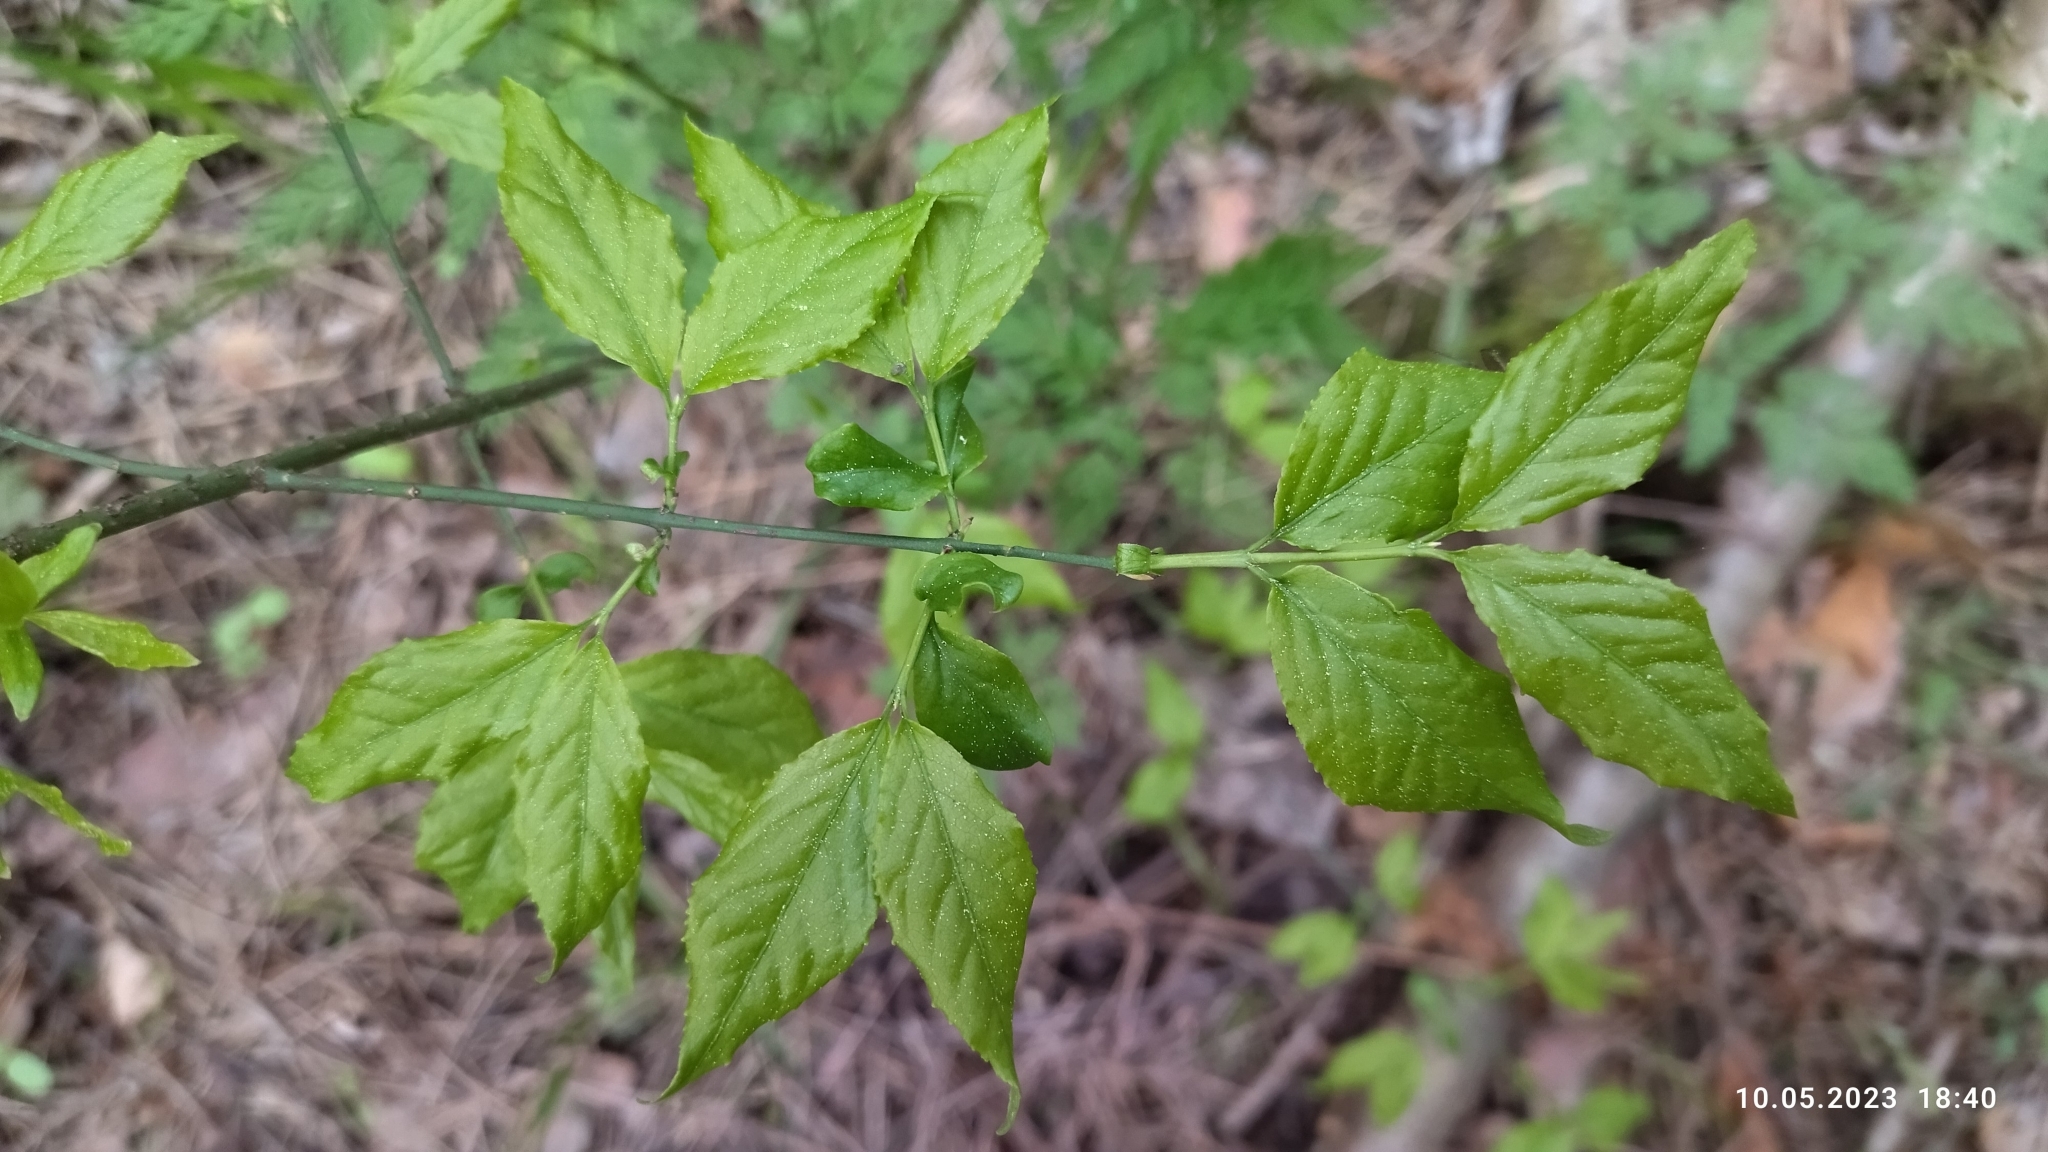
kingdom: Plantae
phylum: Tracheophyta
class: Magnoliopsida
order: Celastrales
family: Celastraceae
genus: Euonymus
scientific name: Euonymus verrucosus
